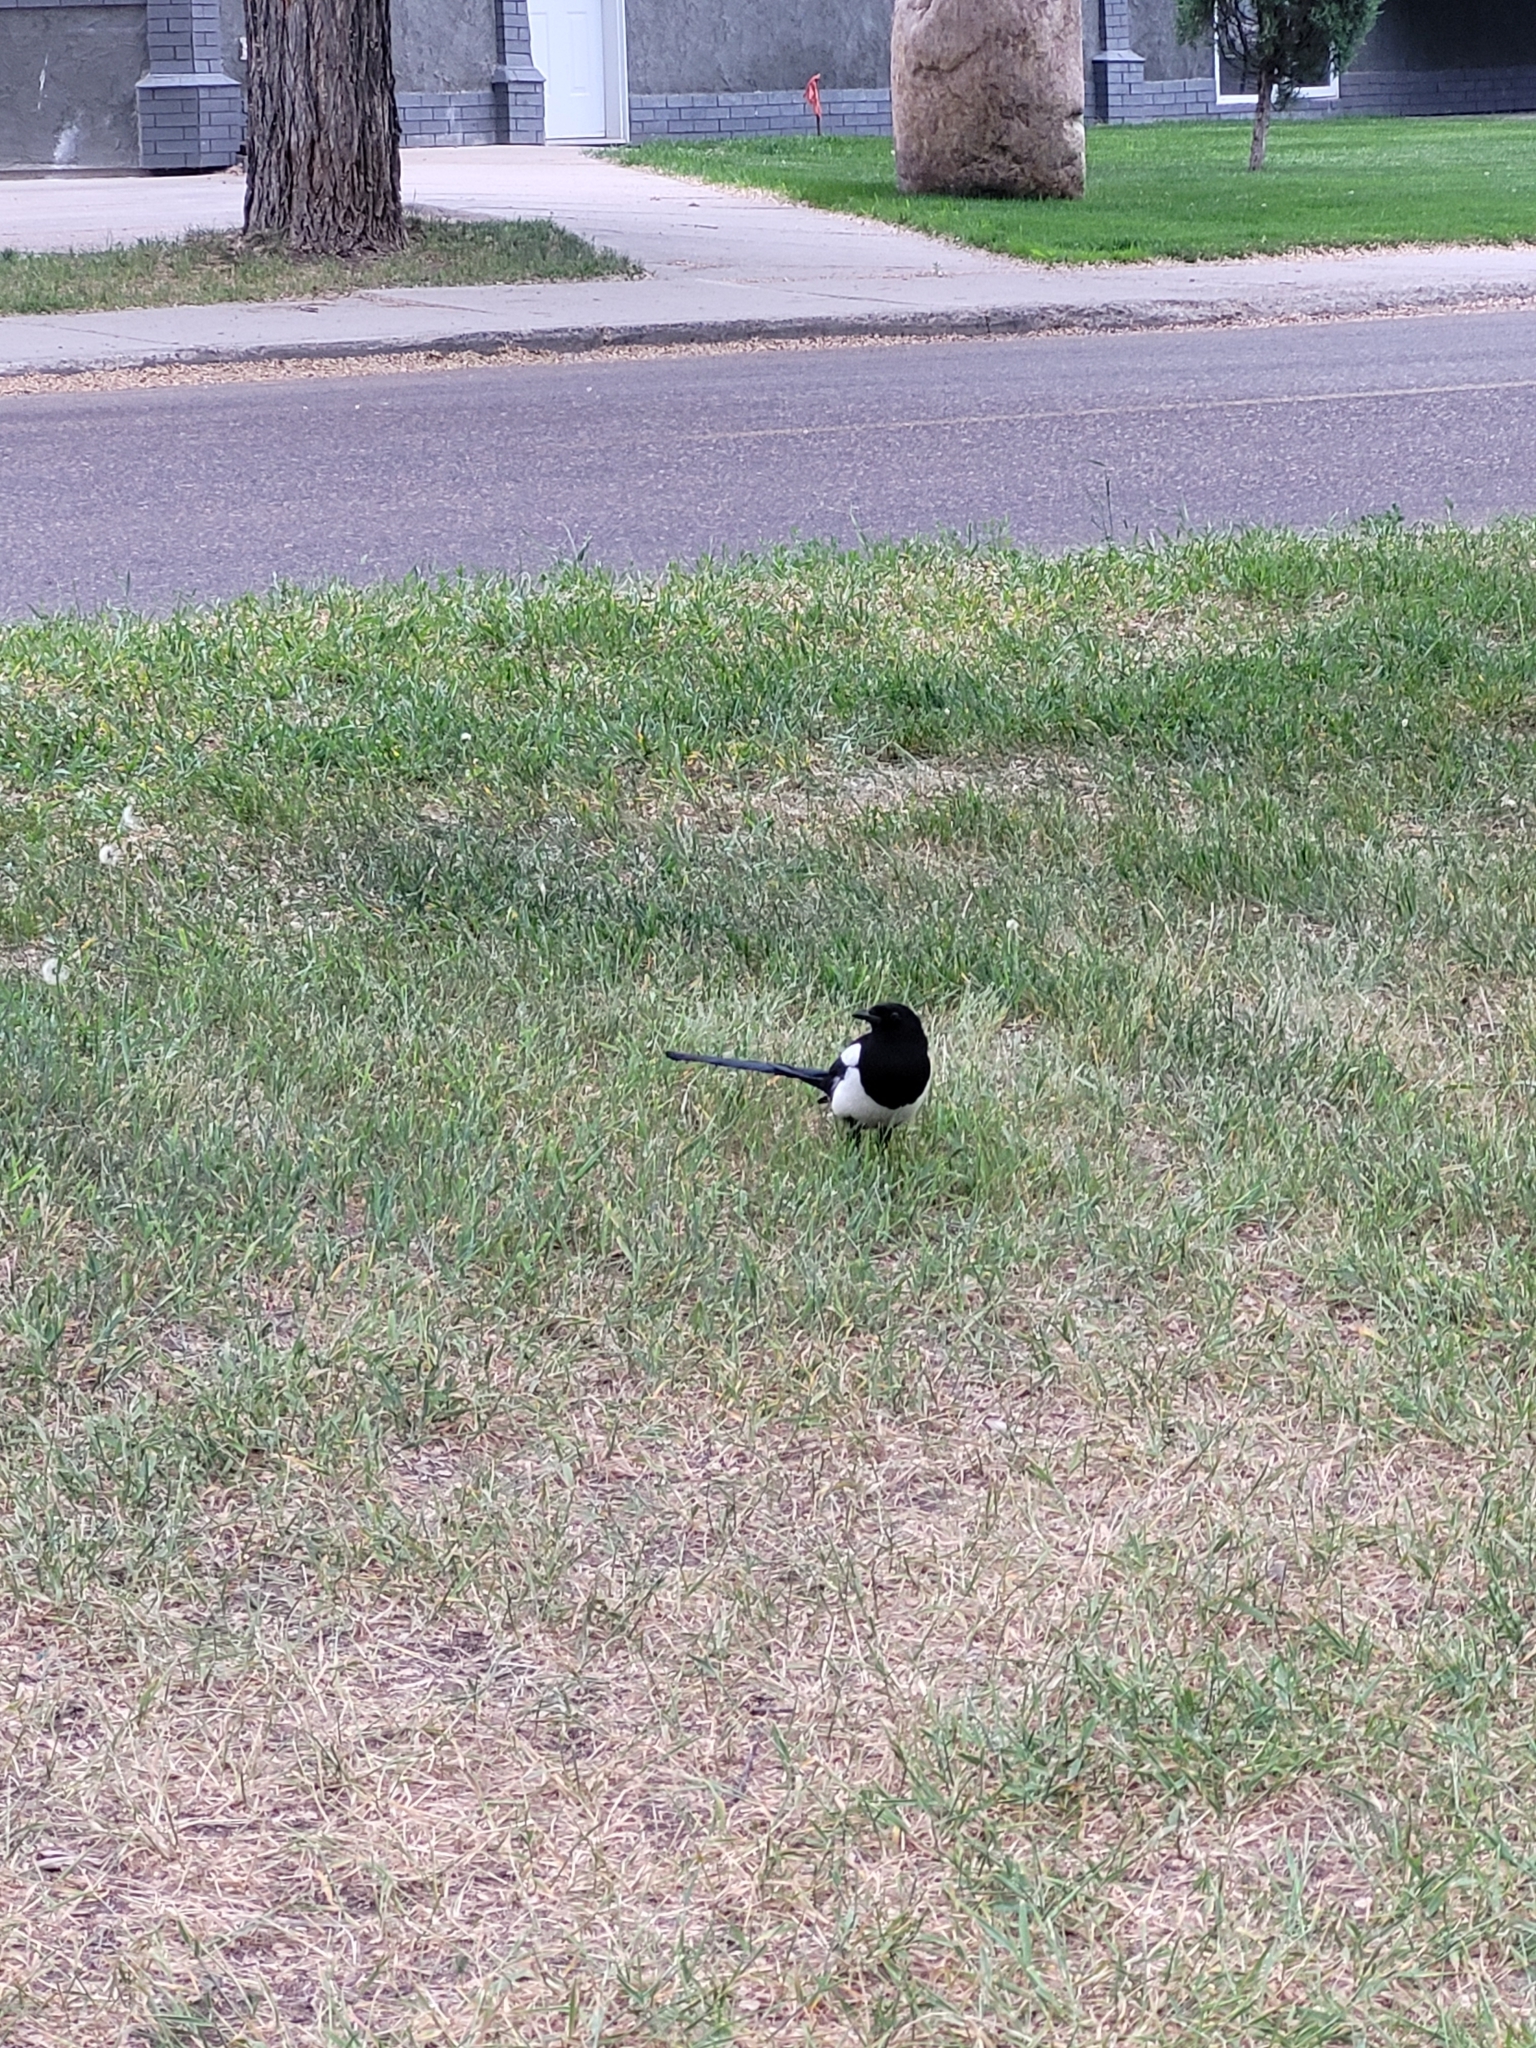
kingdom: Animalia
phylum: Chordata
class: Aves
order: Passeriformes
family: Corvidae
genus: Pica
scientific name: Pica hudsonia
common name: Black-billed magpie
